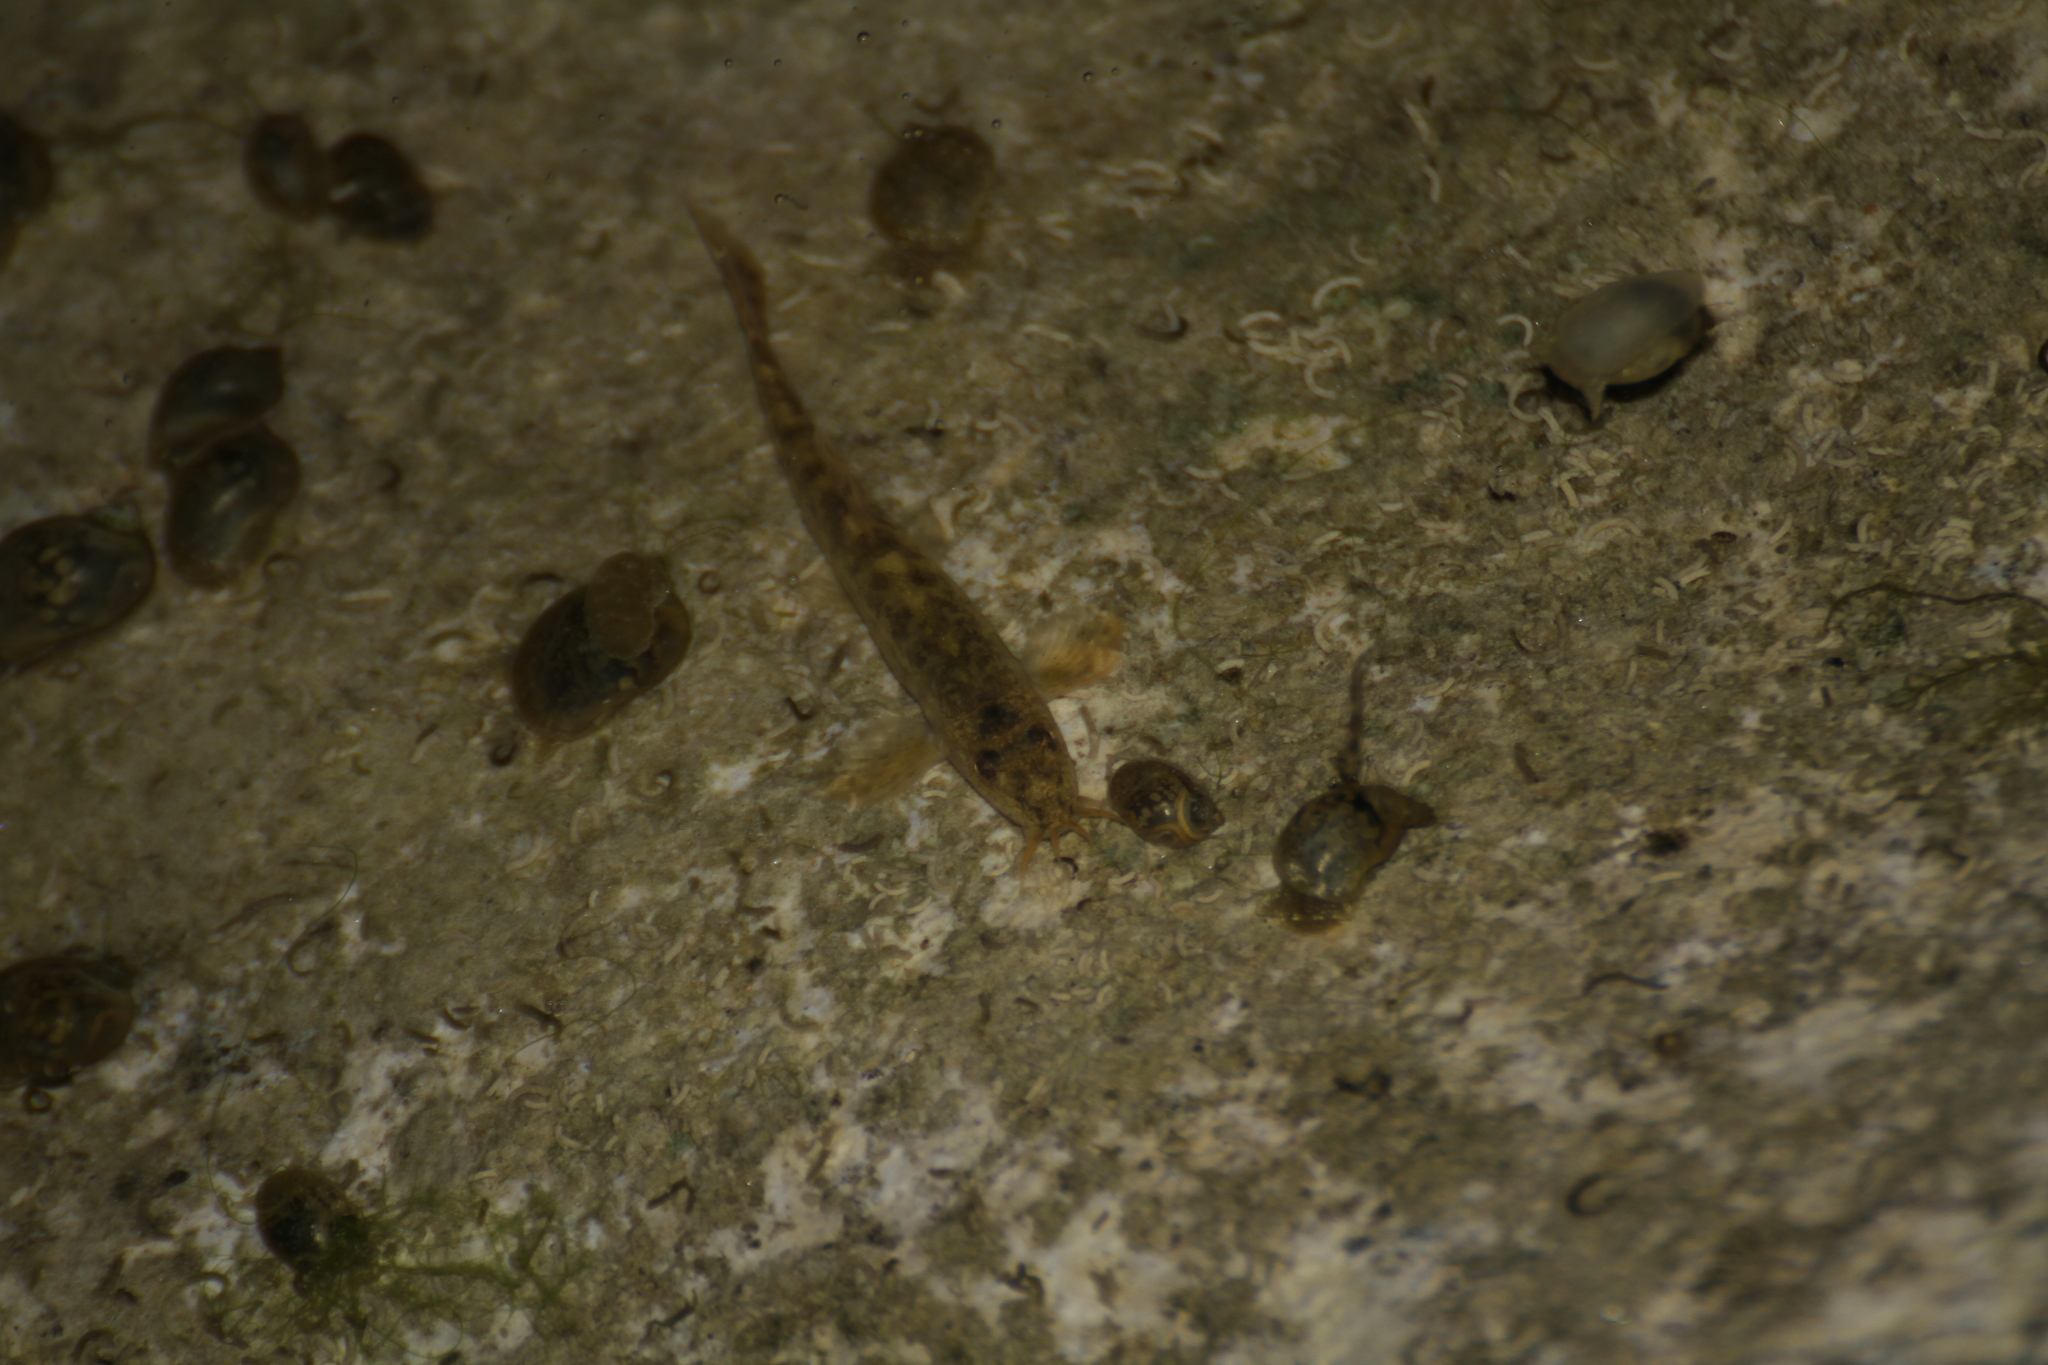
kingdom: Animalia
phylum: Chordata
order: Cypriniformes
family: Nemacheilidae
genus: Barbatula
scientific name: Barbatula barbatula
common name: Stone loach
